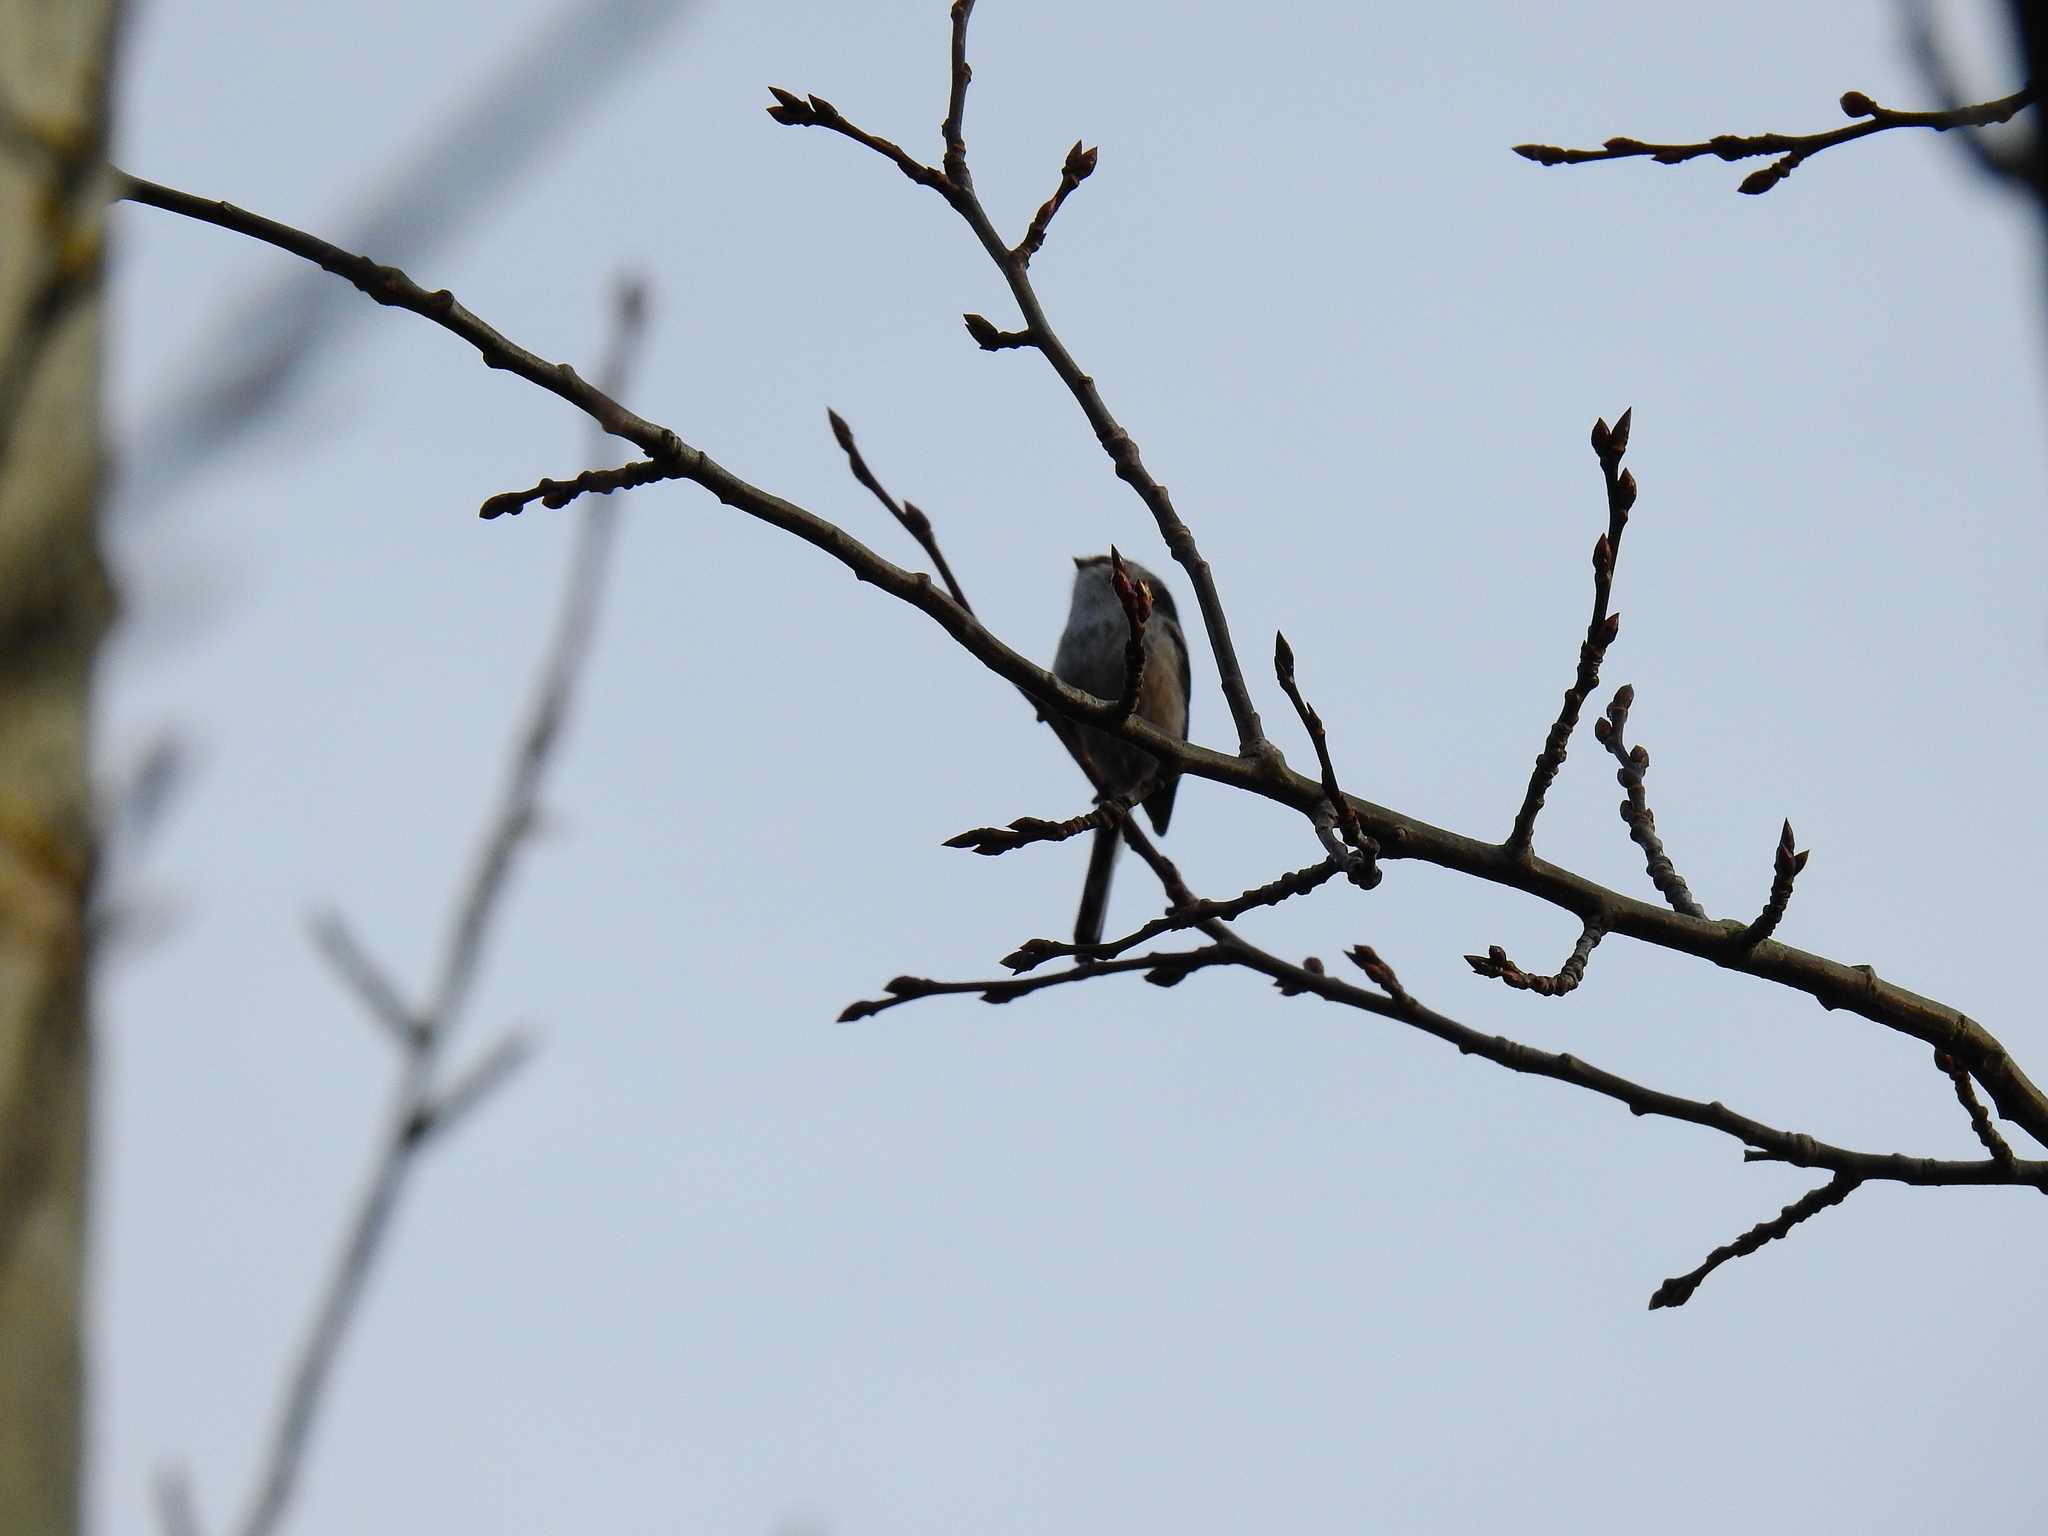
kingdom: Animalia
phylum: Chordata
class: Aves
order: Passeriformes
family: Aegithalidae
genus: Aegithalos
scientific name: Aegithalos caudatus
